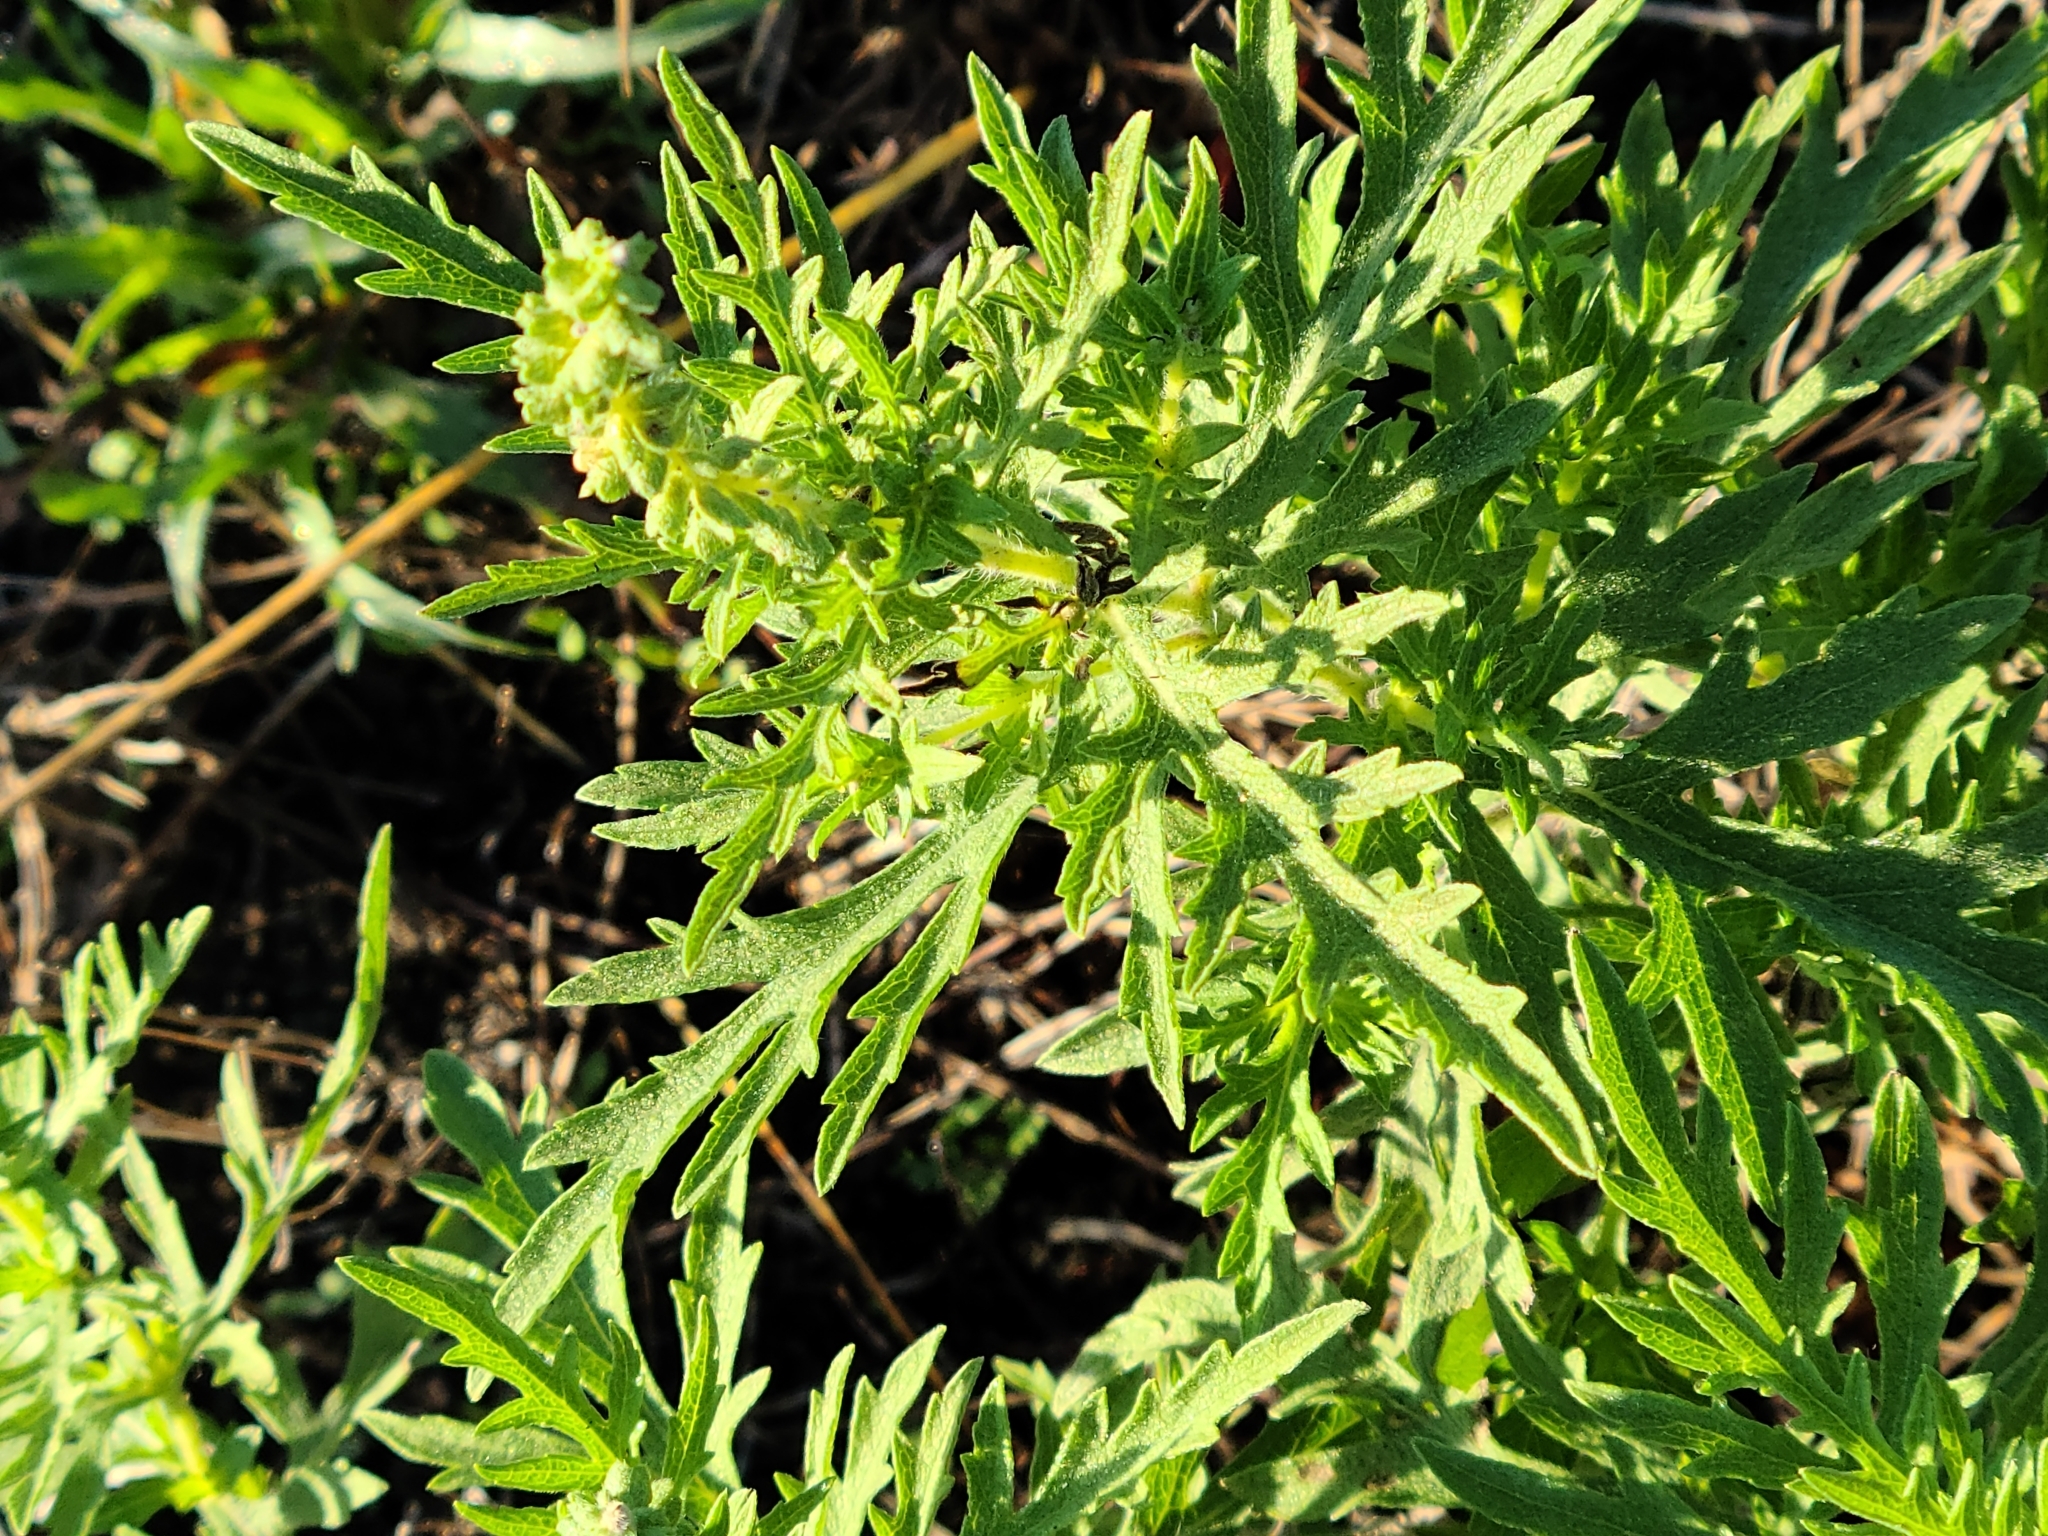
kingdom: Plantae
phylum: Tracheophyta
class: Magnoliopsida
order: Asterales
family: Asteraceae
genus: Ambrosia
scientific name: Ambrosia psilostachya
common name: Perennial ragweed
